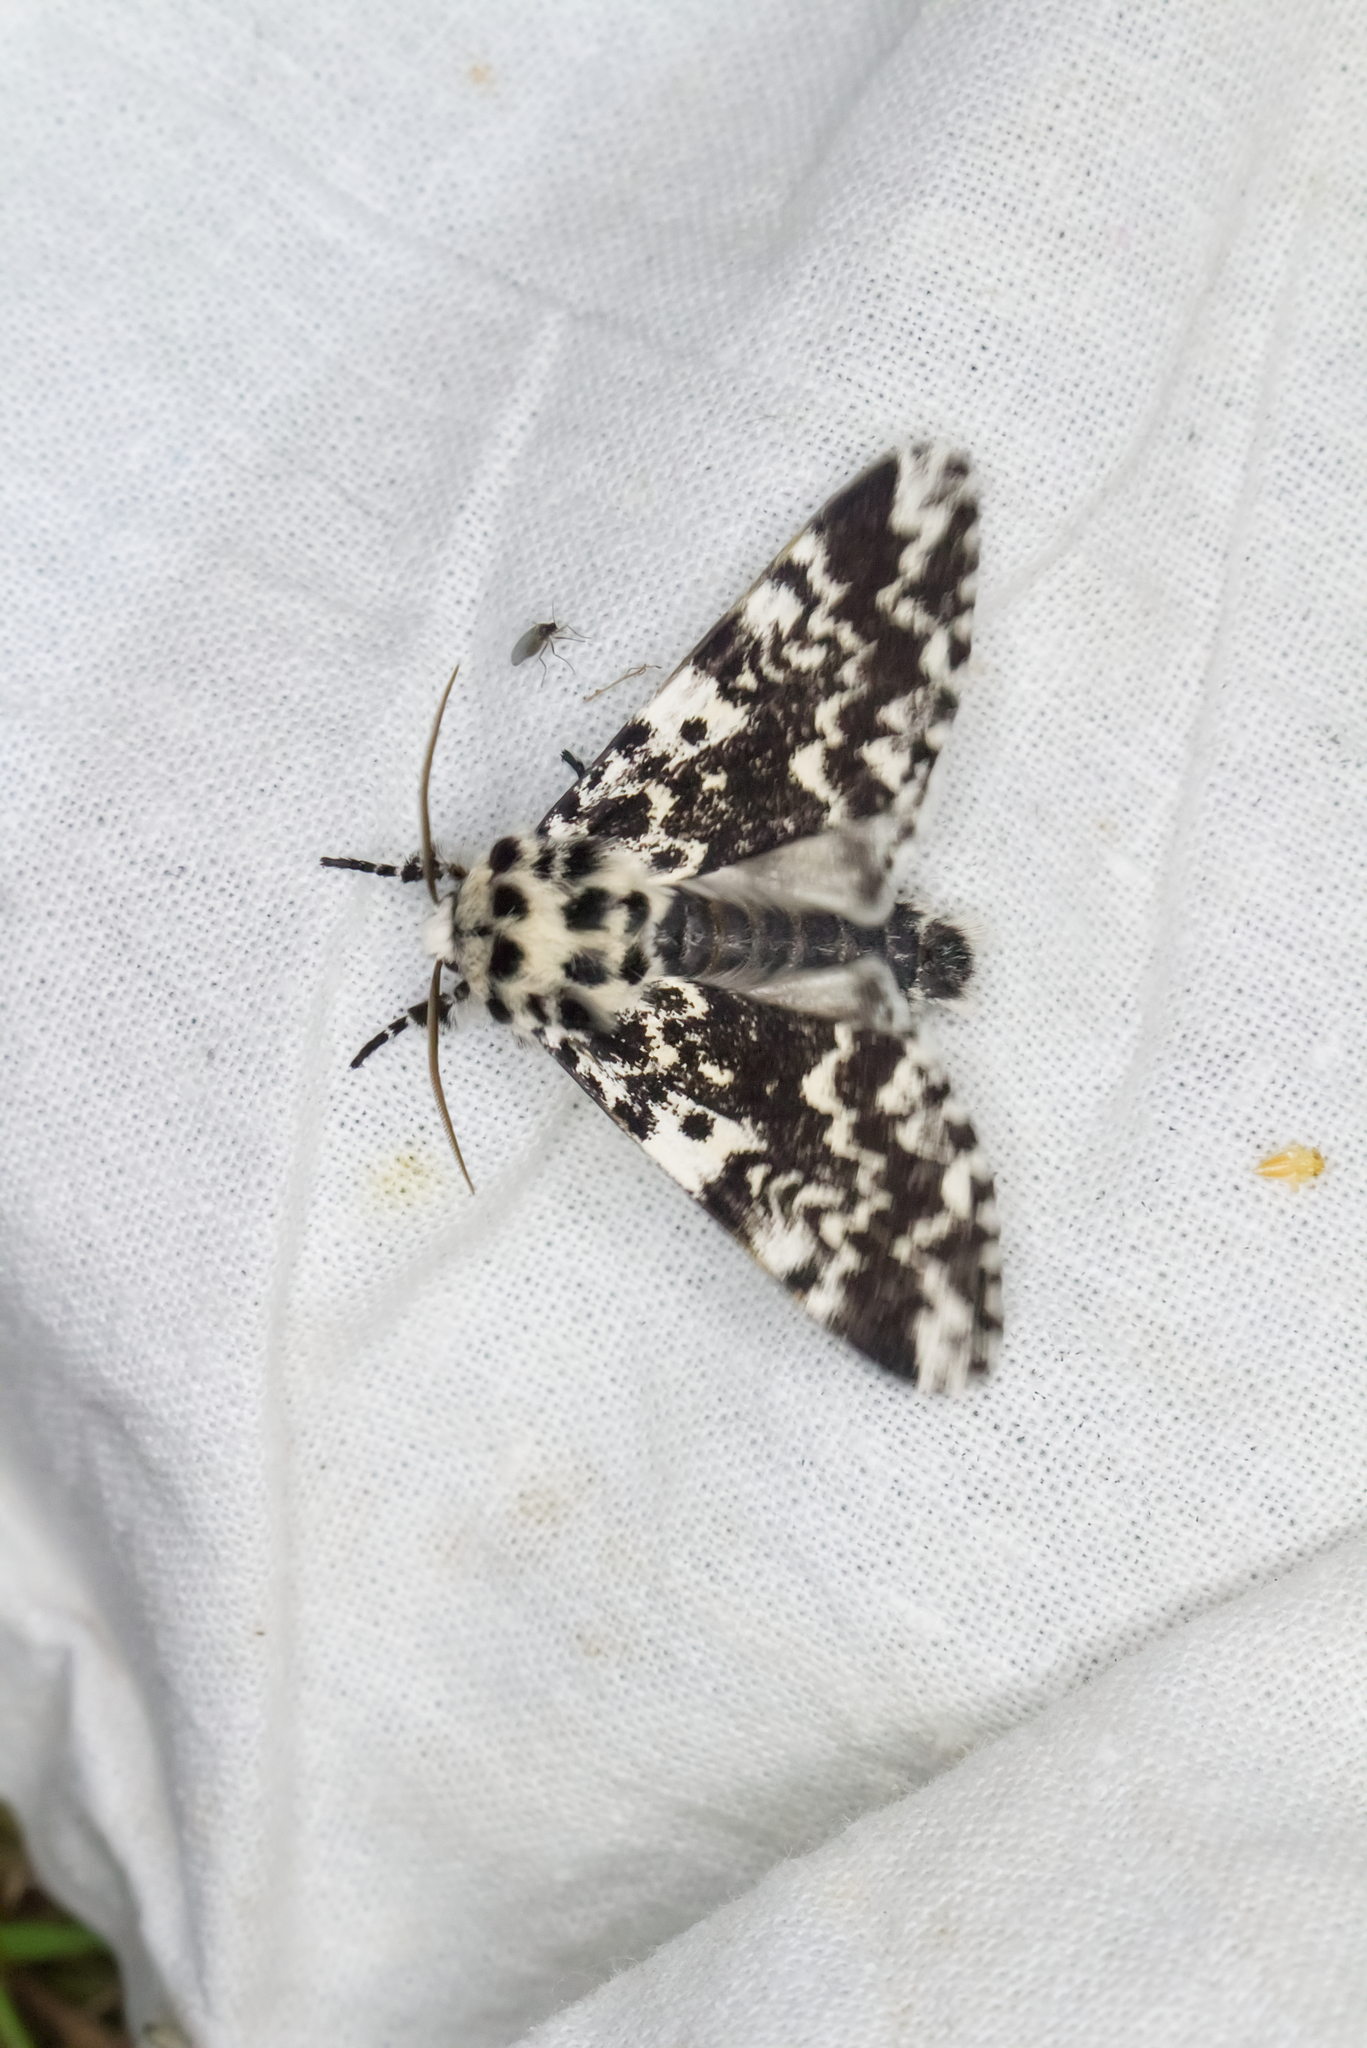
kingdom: Animalia
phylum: Arthropoda
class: Insecta
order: Lepidoptera
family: Noctuidae
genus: Panthea
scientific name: Panthea coenobita
